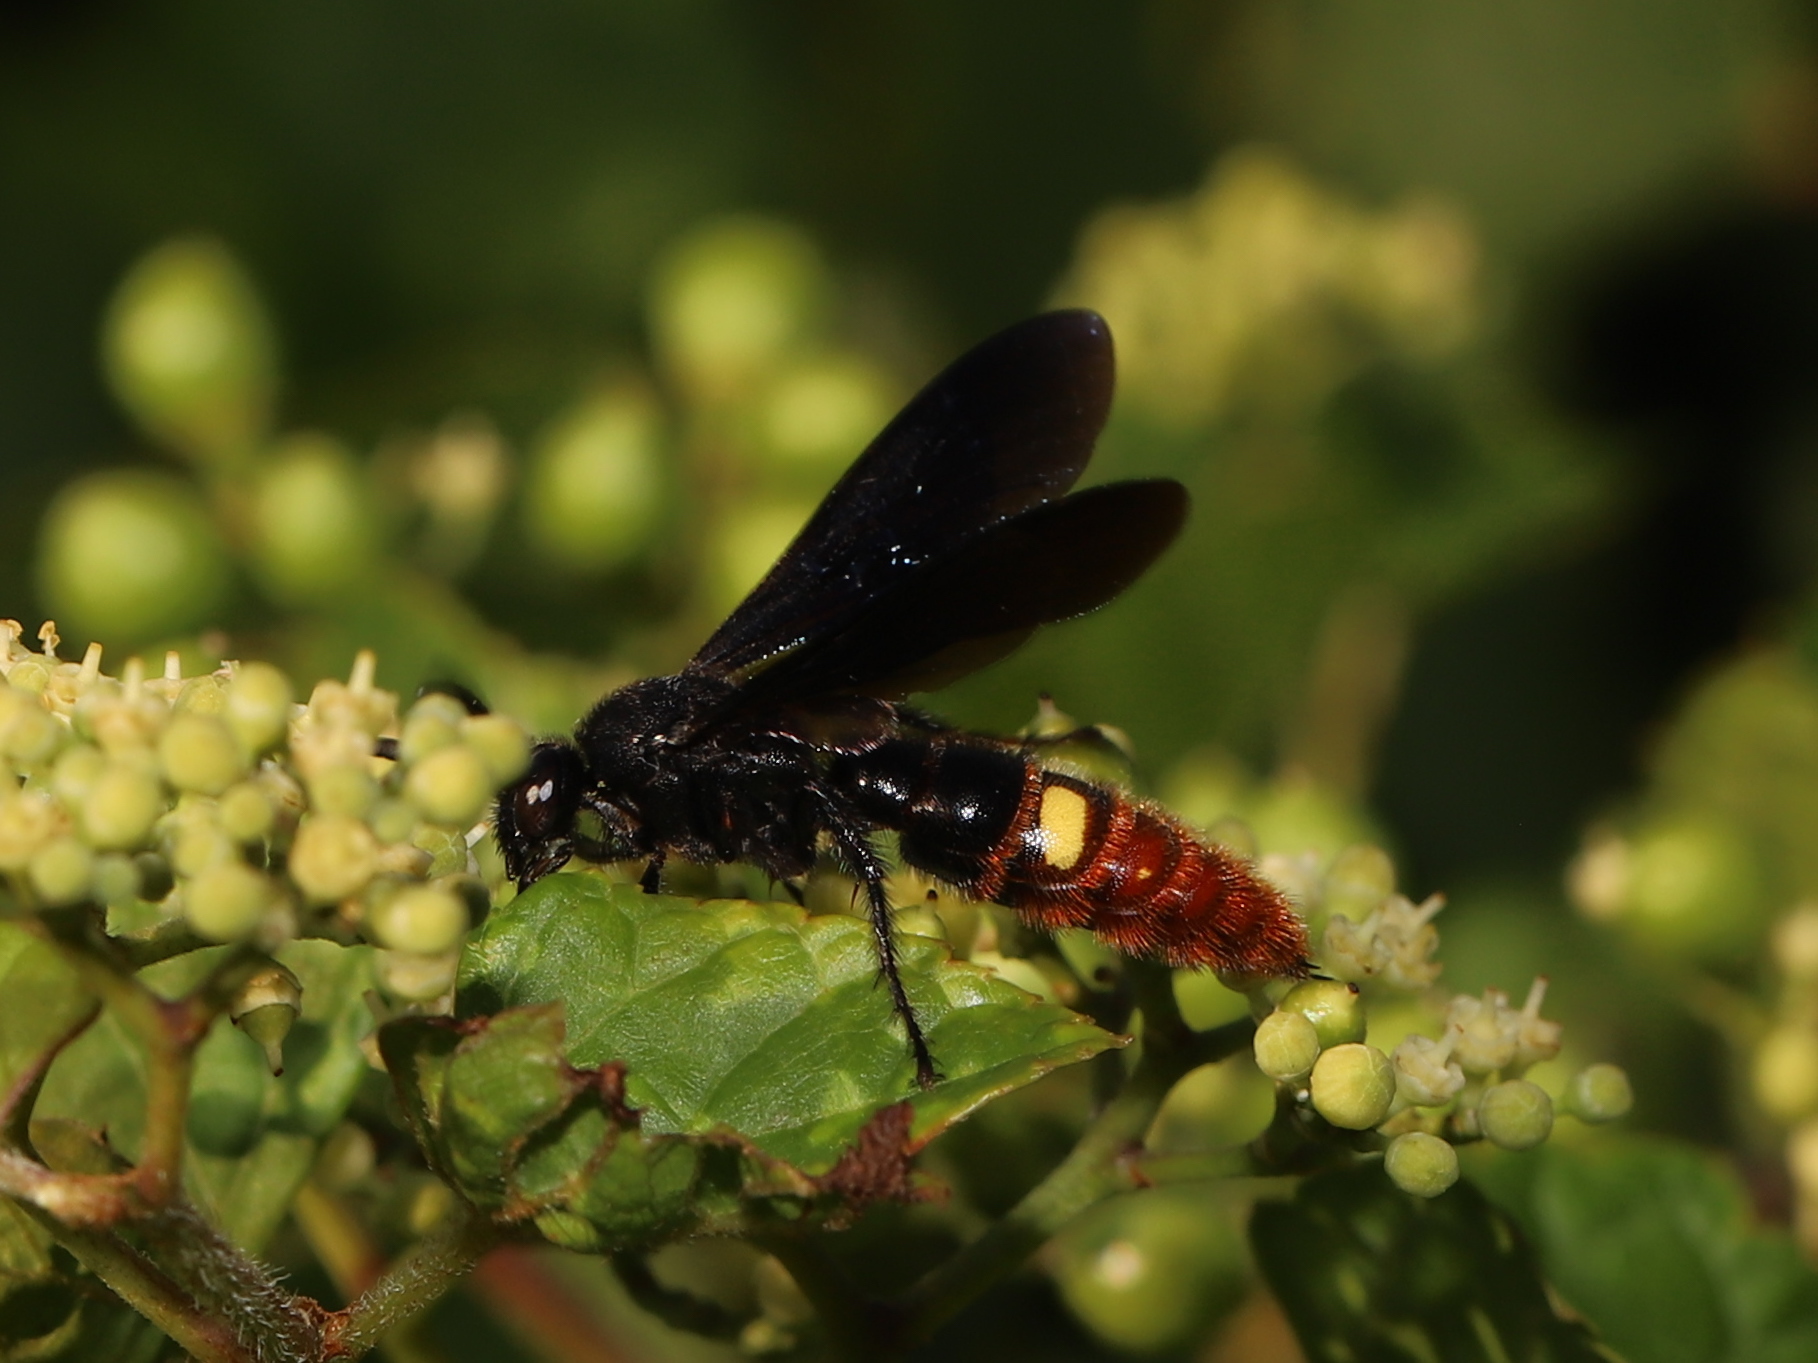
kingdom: Animalia
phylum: Arthropoda
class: Insecta
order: Hymenoptera
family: Scoliidae
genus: Scolia
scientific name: Scolia dubia
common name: Blue-winged scoliid wasp
